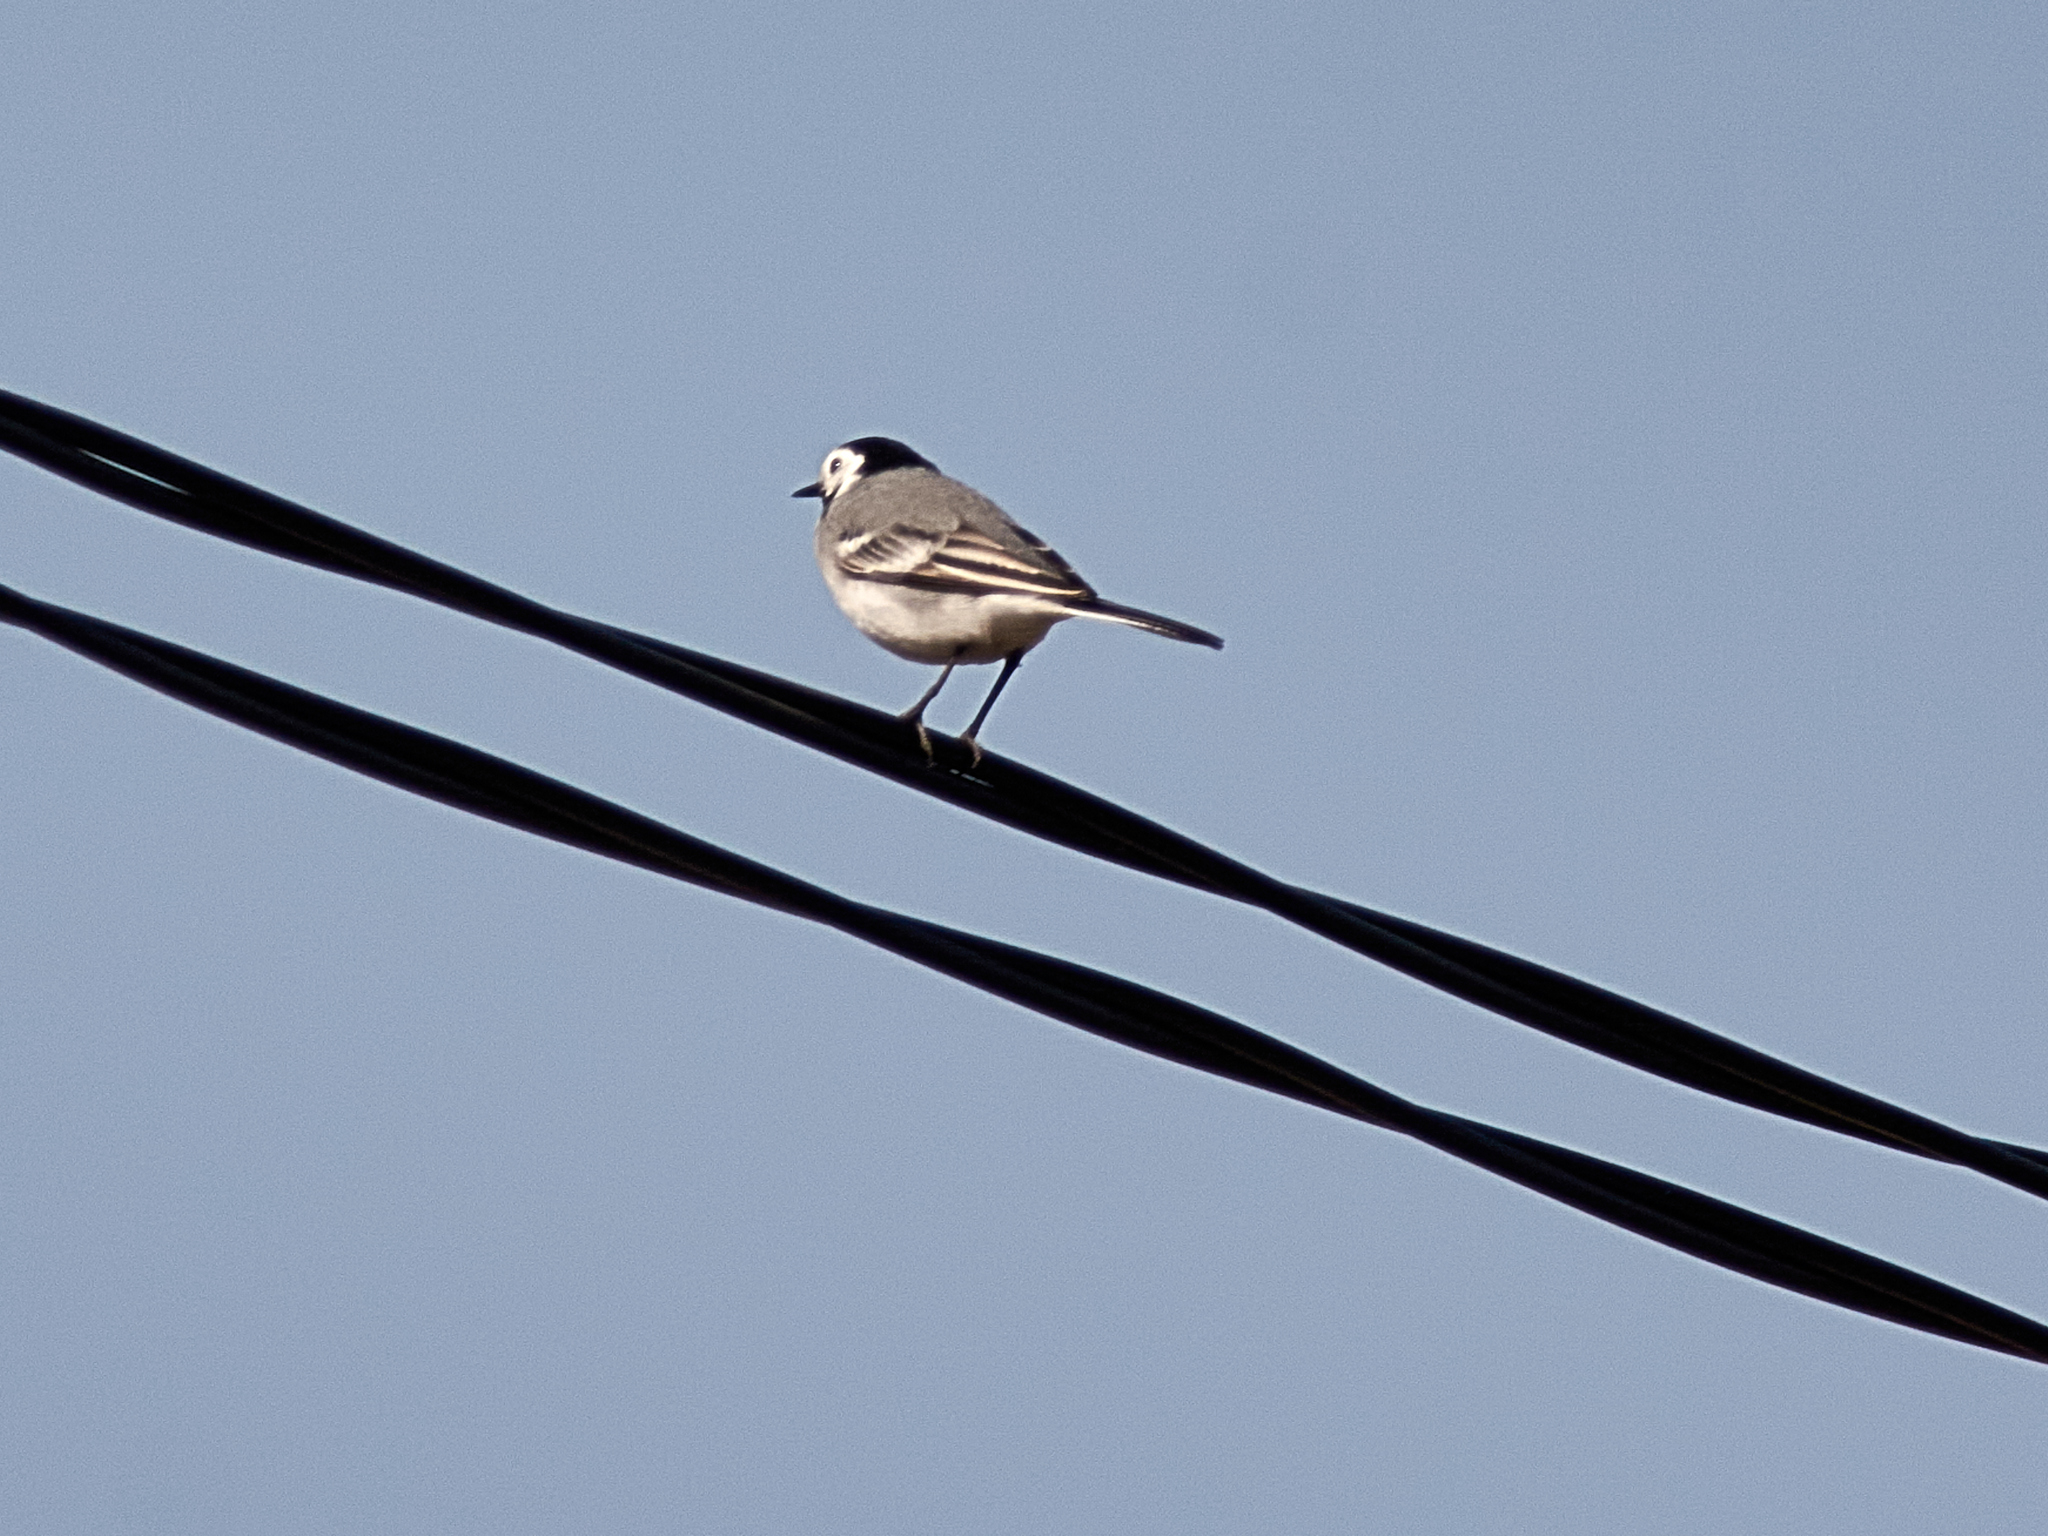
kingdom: Animalia
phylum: Chordata
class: Aves
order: Passeriformes
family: Motacillidae
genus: Motacilla
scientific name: Motacilla alba
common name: White wagtail
